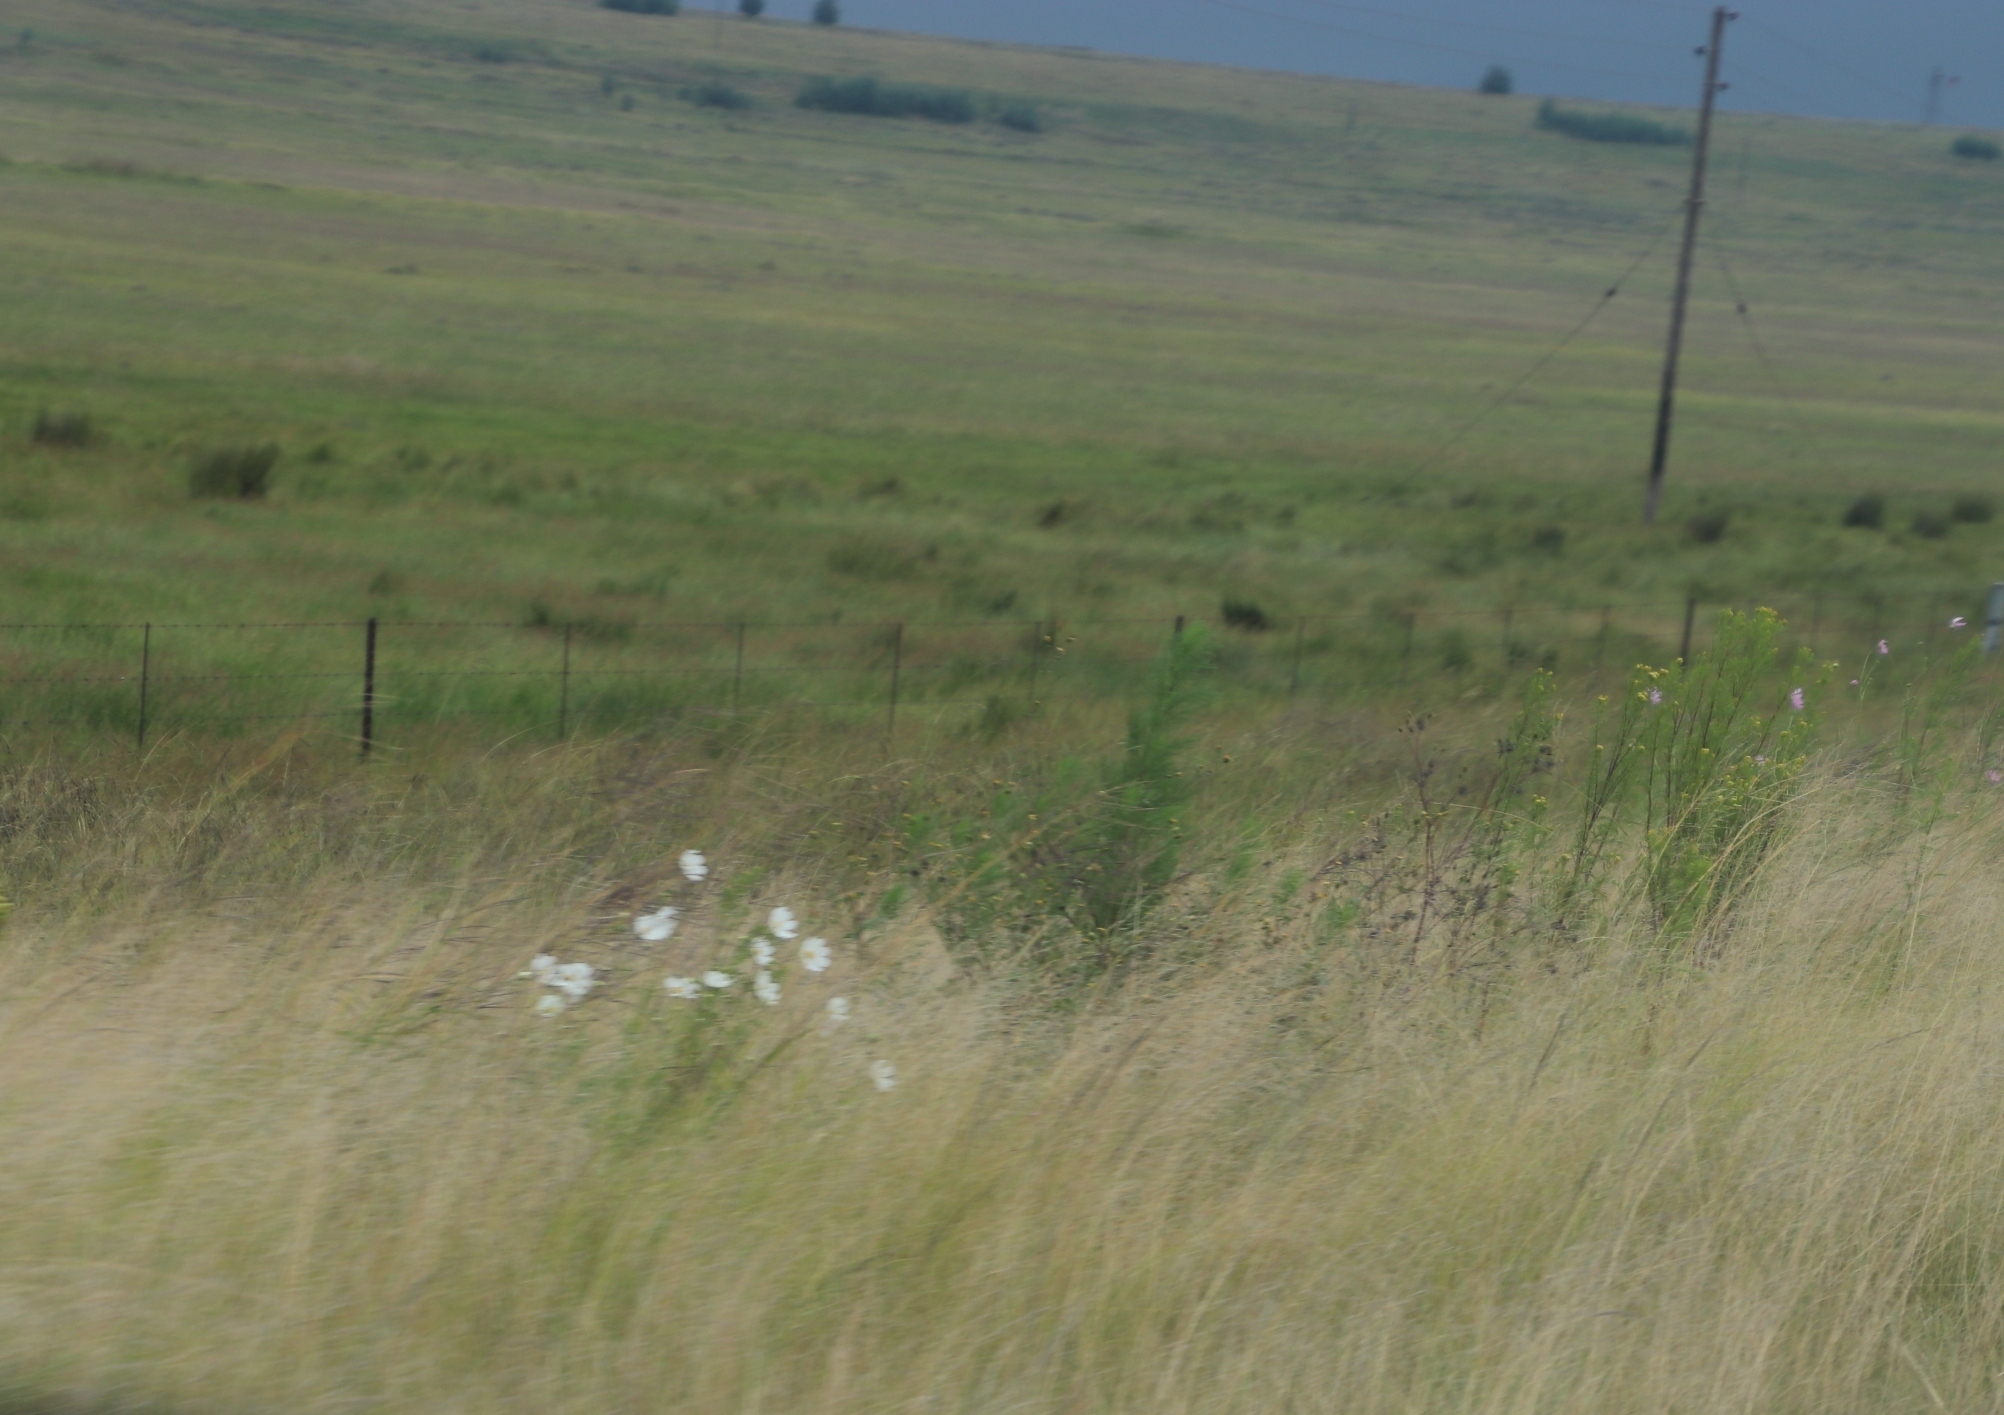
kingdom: Plantae
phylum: Tracheophyta
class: Magnoliopsida
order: Asterales
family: Asteraceae
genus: Cosmos
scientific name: Cosmos bipinnatus
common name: Garden cosmos
